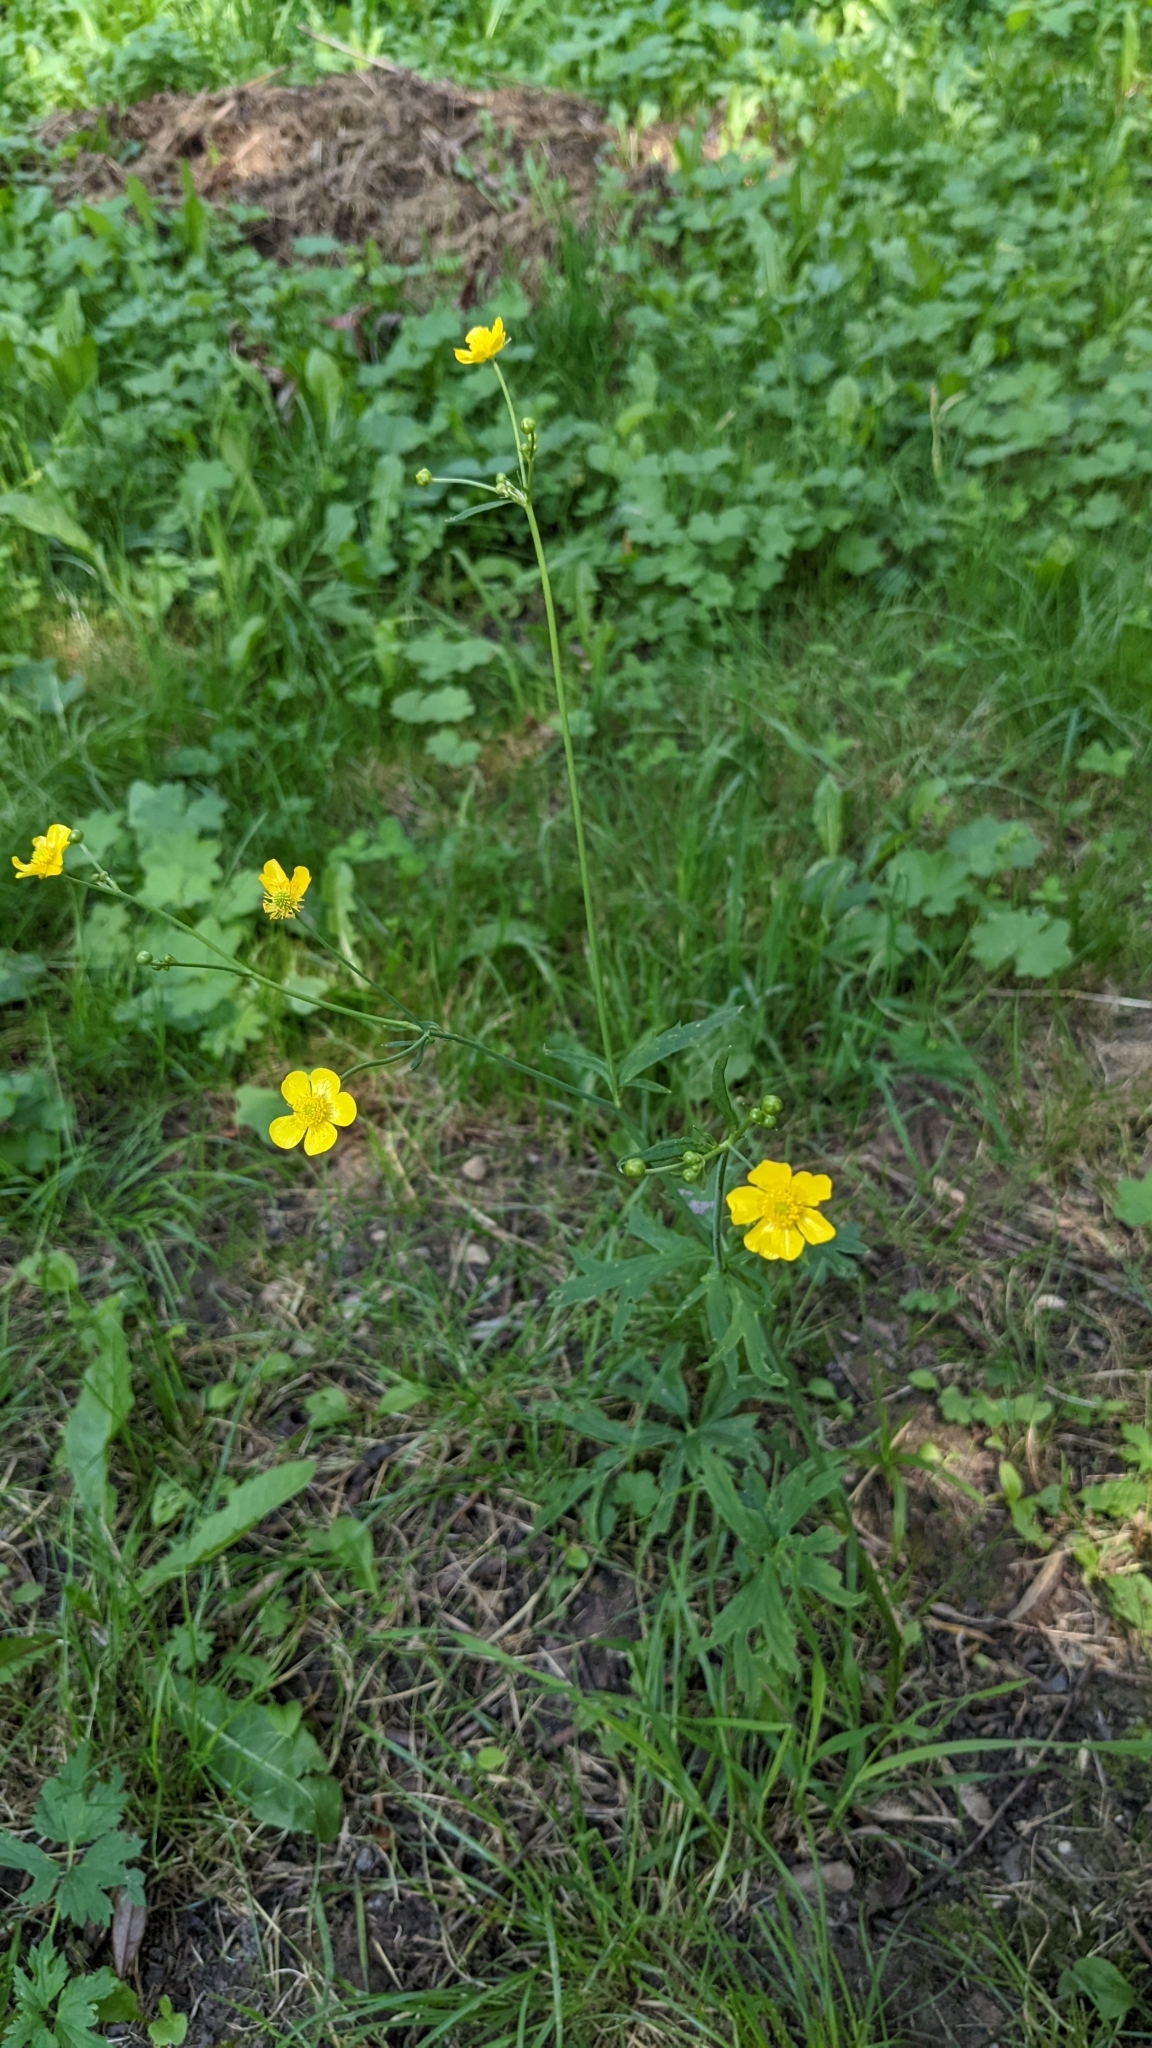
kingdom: Plantae
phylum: Tracheophyta
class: Magnoliopsida
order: Ranunculales
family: Ranunculaceae
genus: Ranunculus
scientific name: Ranunculus acris
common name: Meadow buttercup
